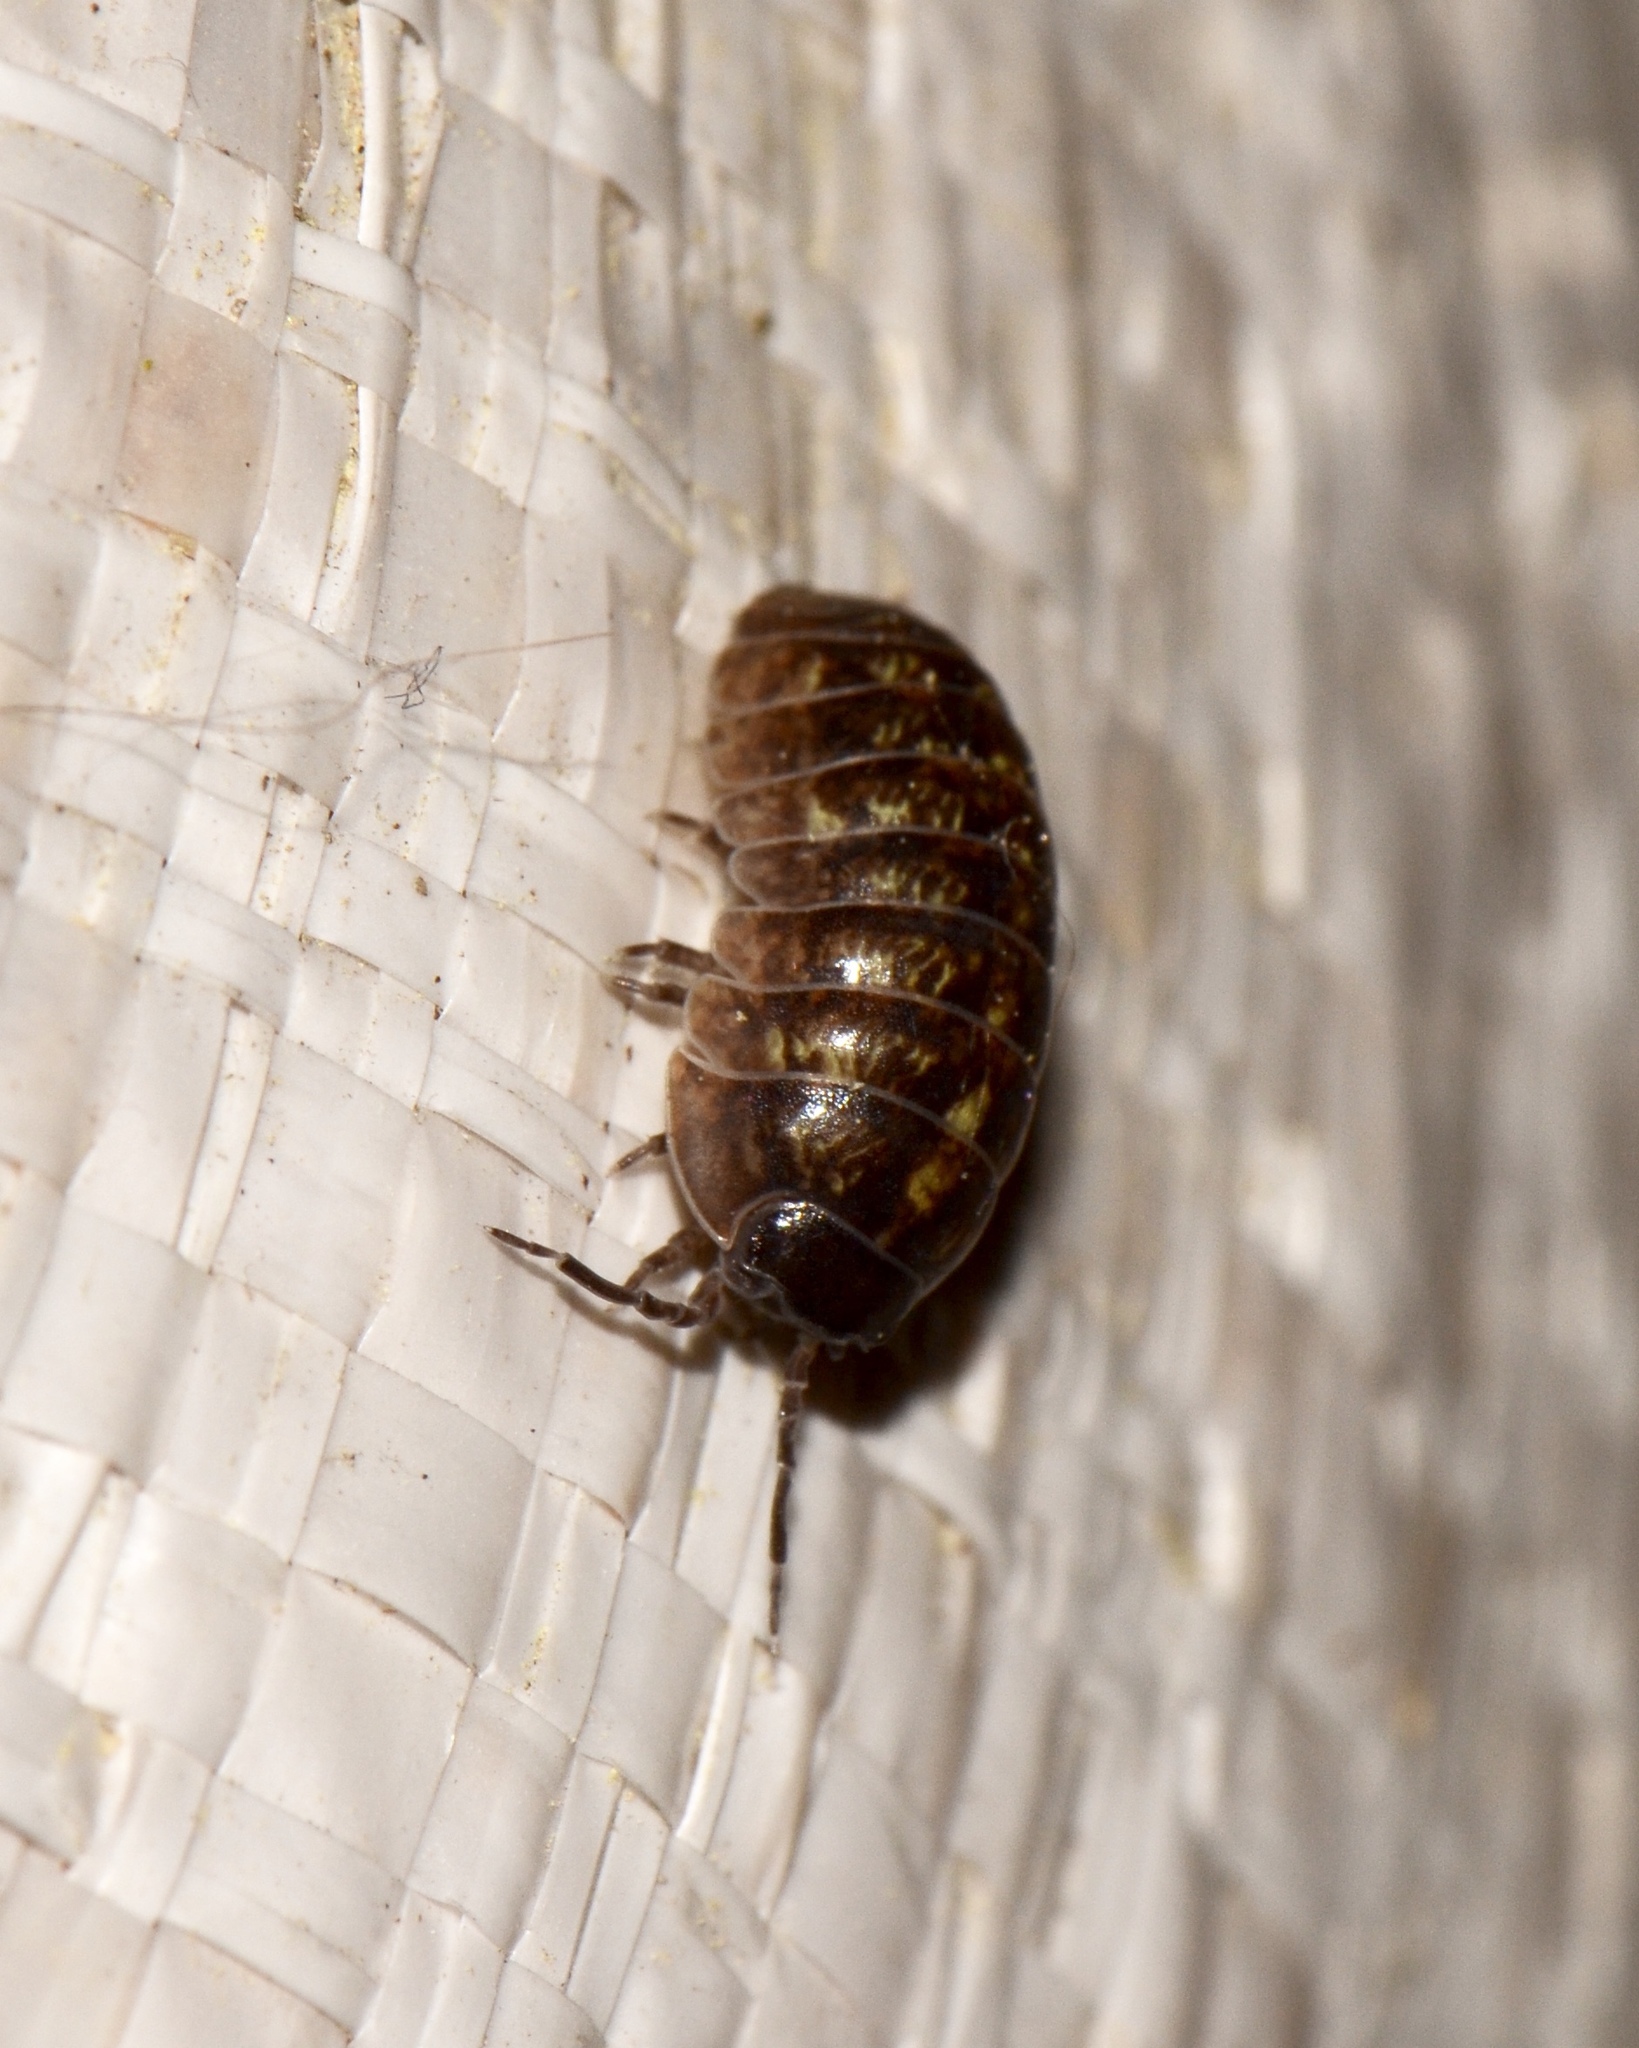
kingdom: Animalia
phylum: Arthropoda
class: Malacostraca
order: Isopoda
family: Armadillidiidae
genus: Armadillidium
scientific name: Armadillidium vulgare
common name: Common pill woodlouse
